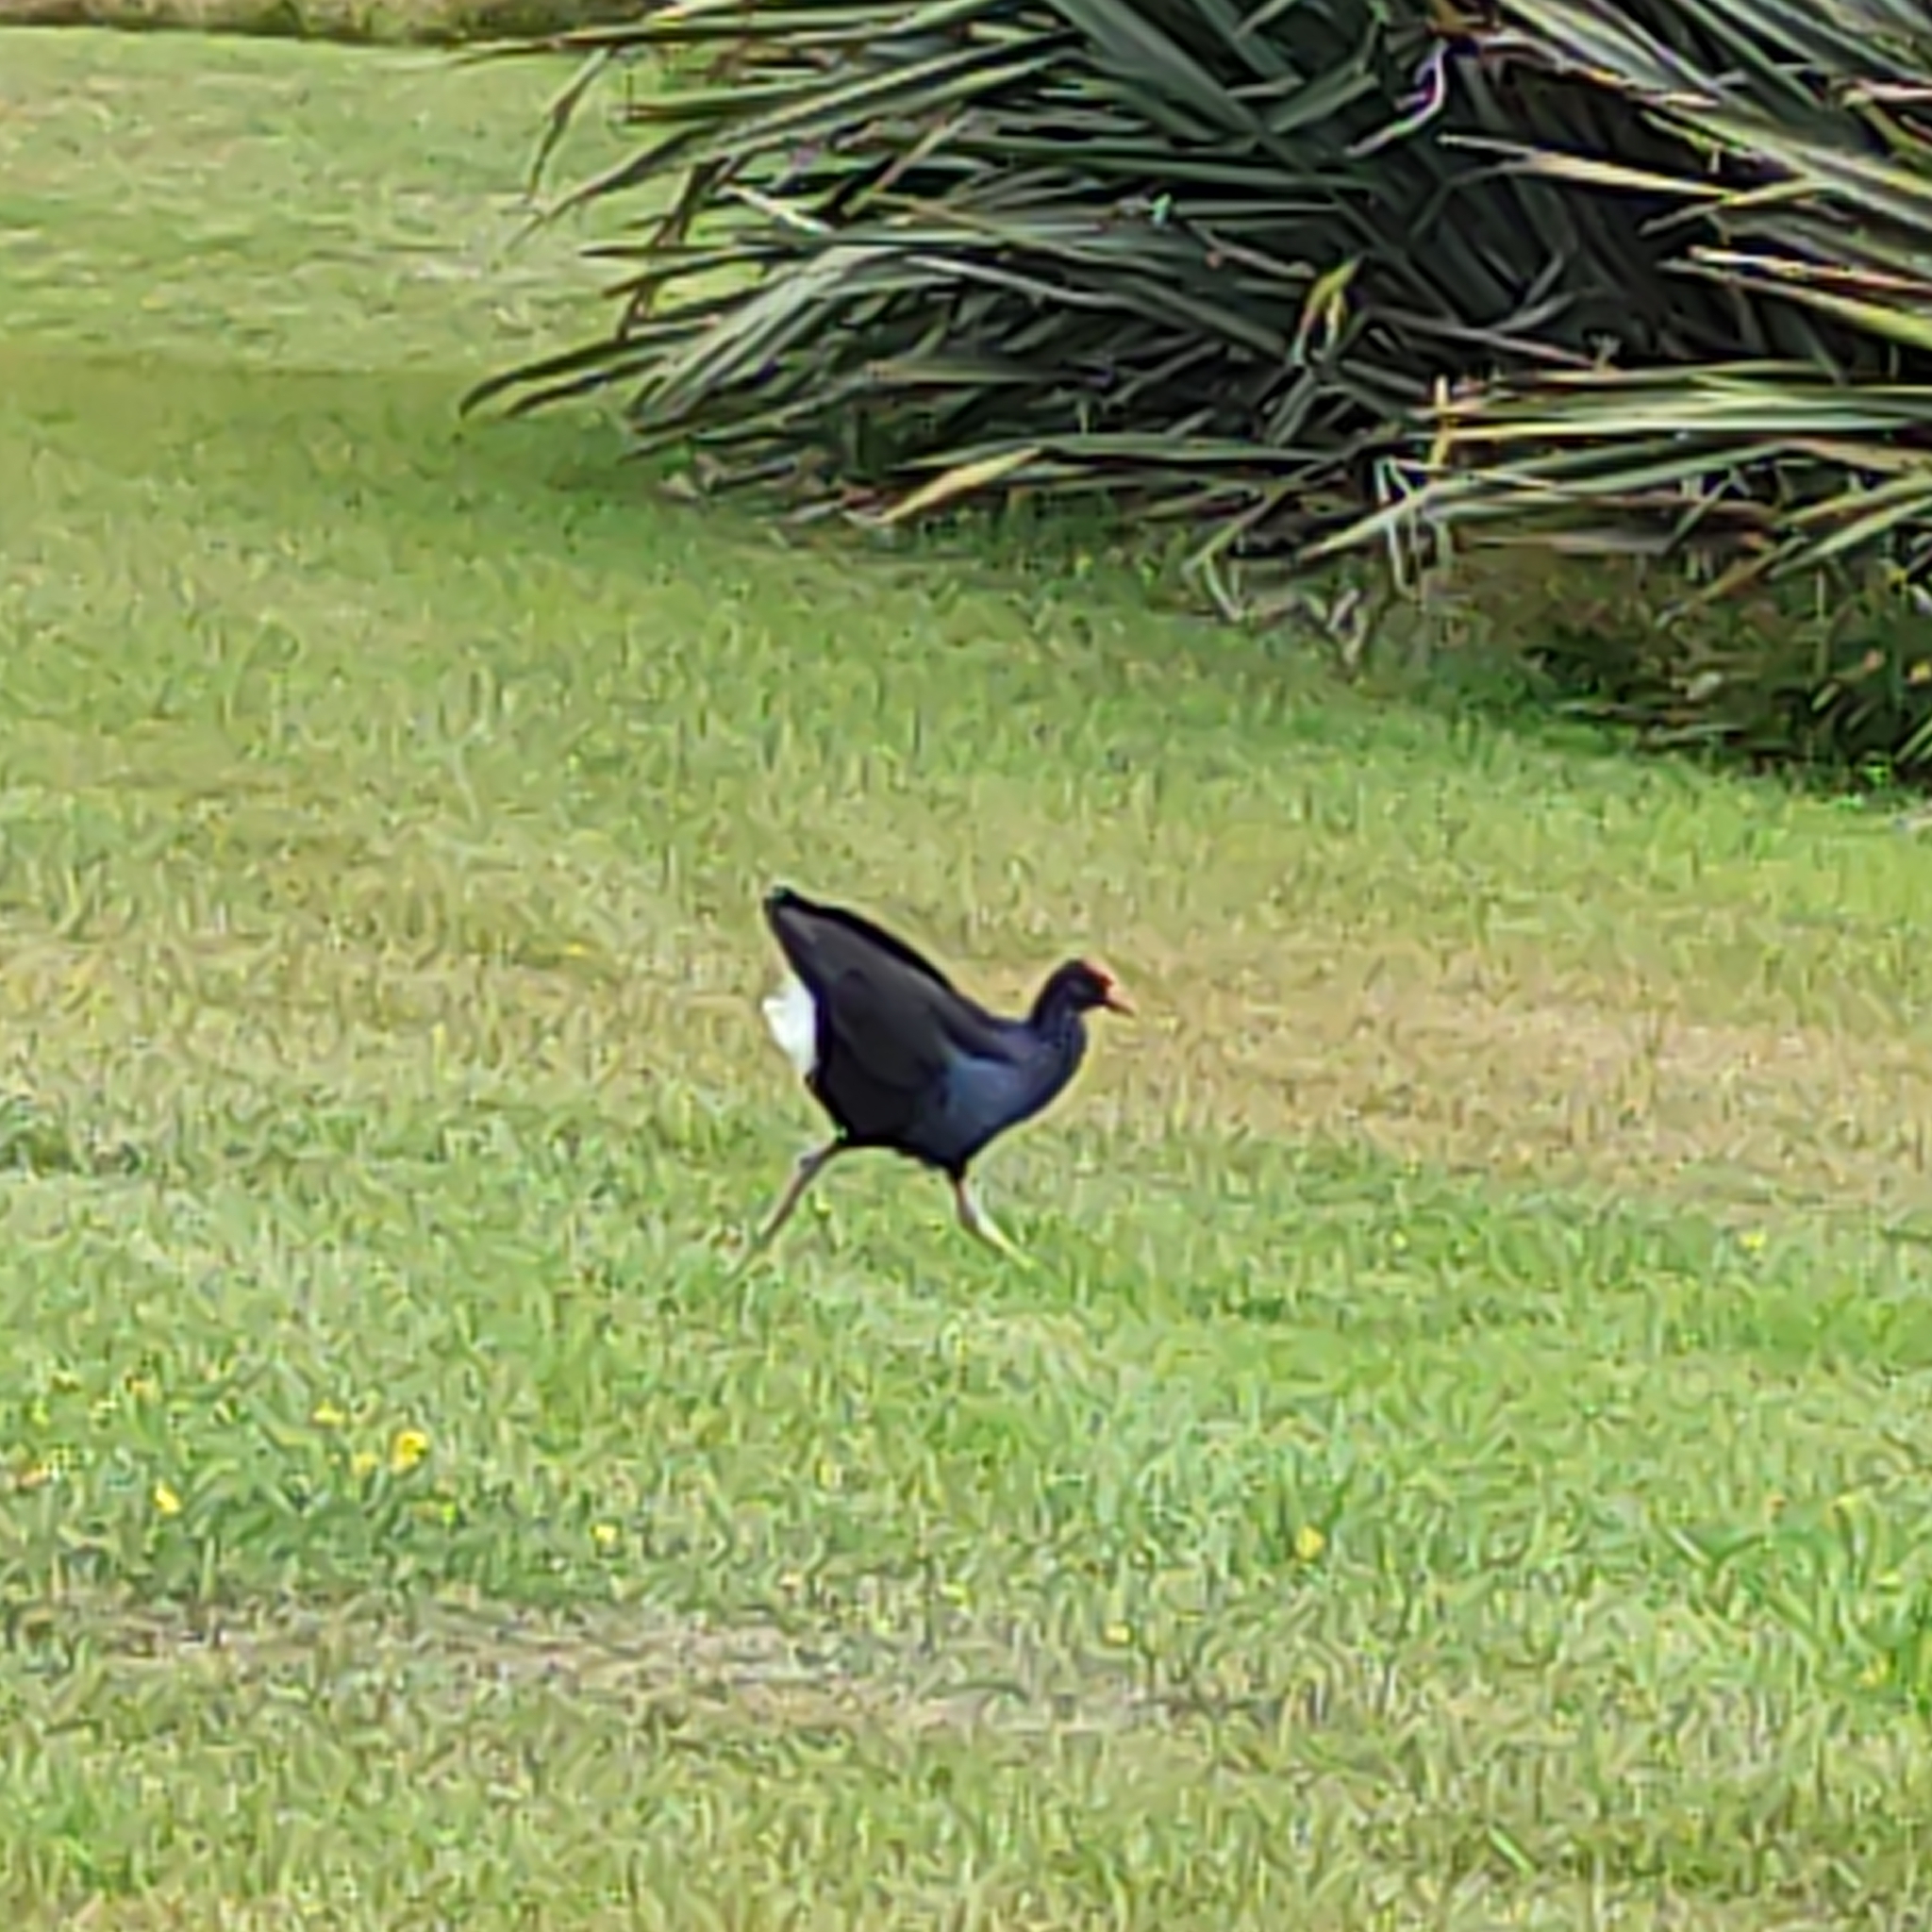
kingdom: Animalia
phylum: Chordata
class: Aves
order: Gruiformes
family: Rallidae
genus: Porphyrio
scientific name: Porphyrio melanotus
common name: Australasian swamphen
